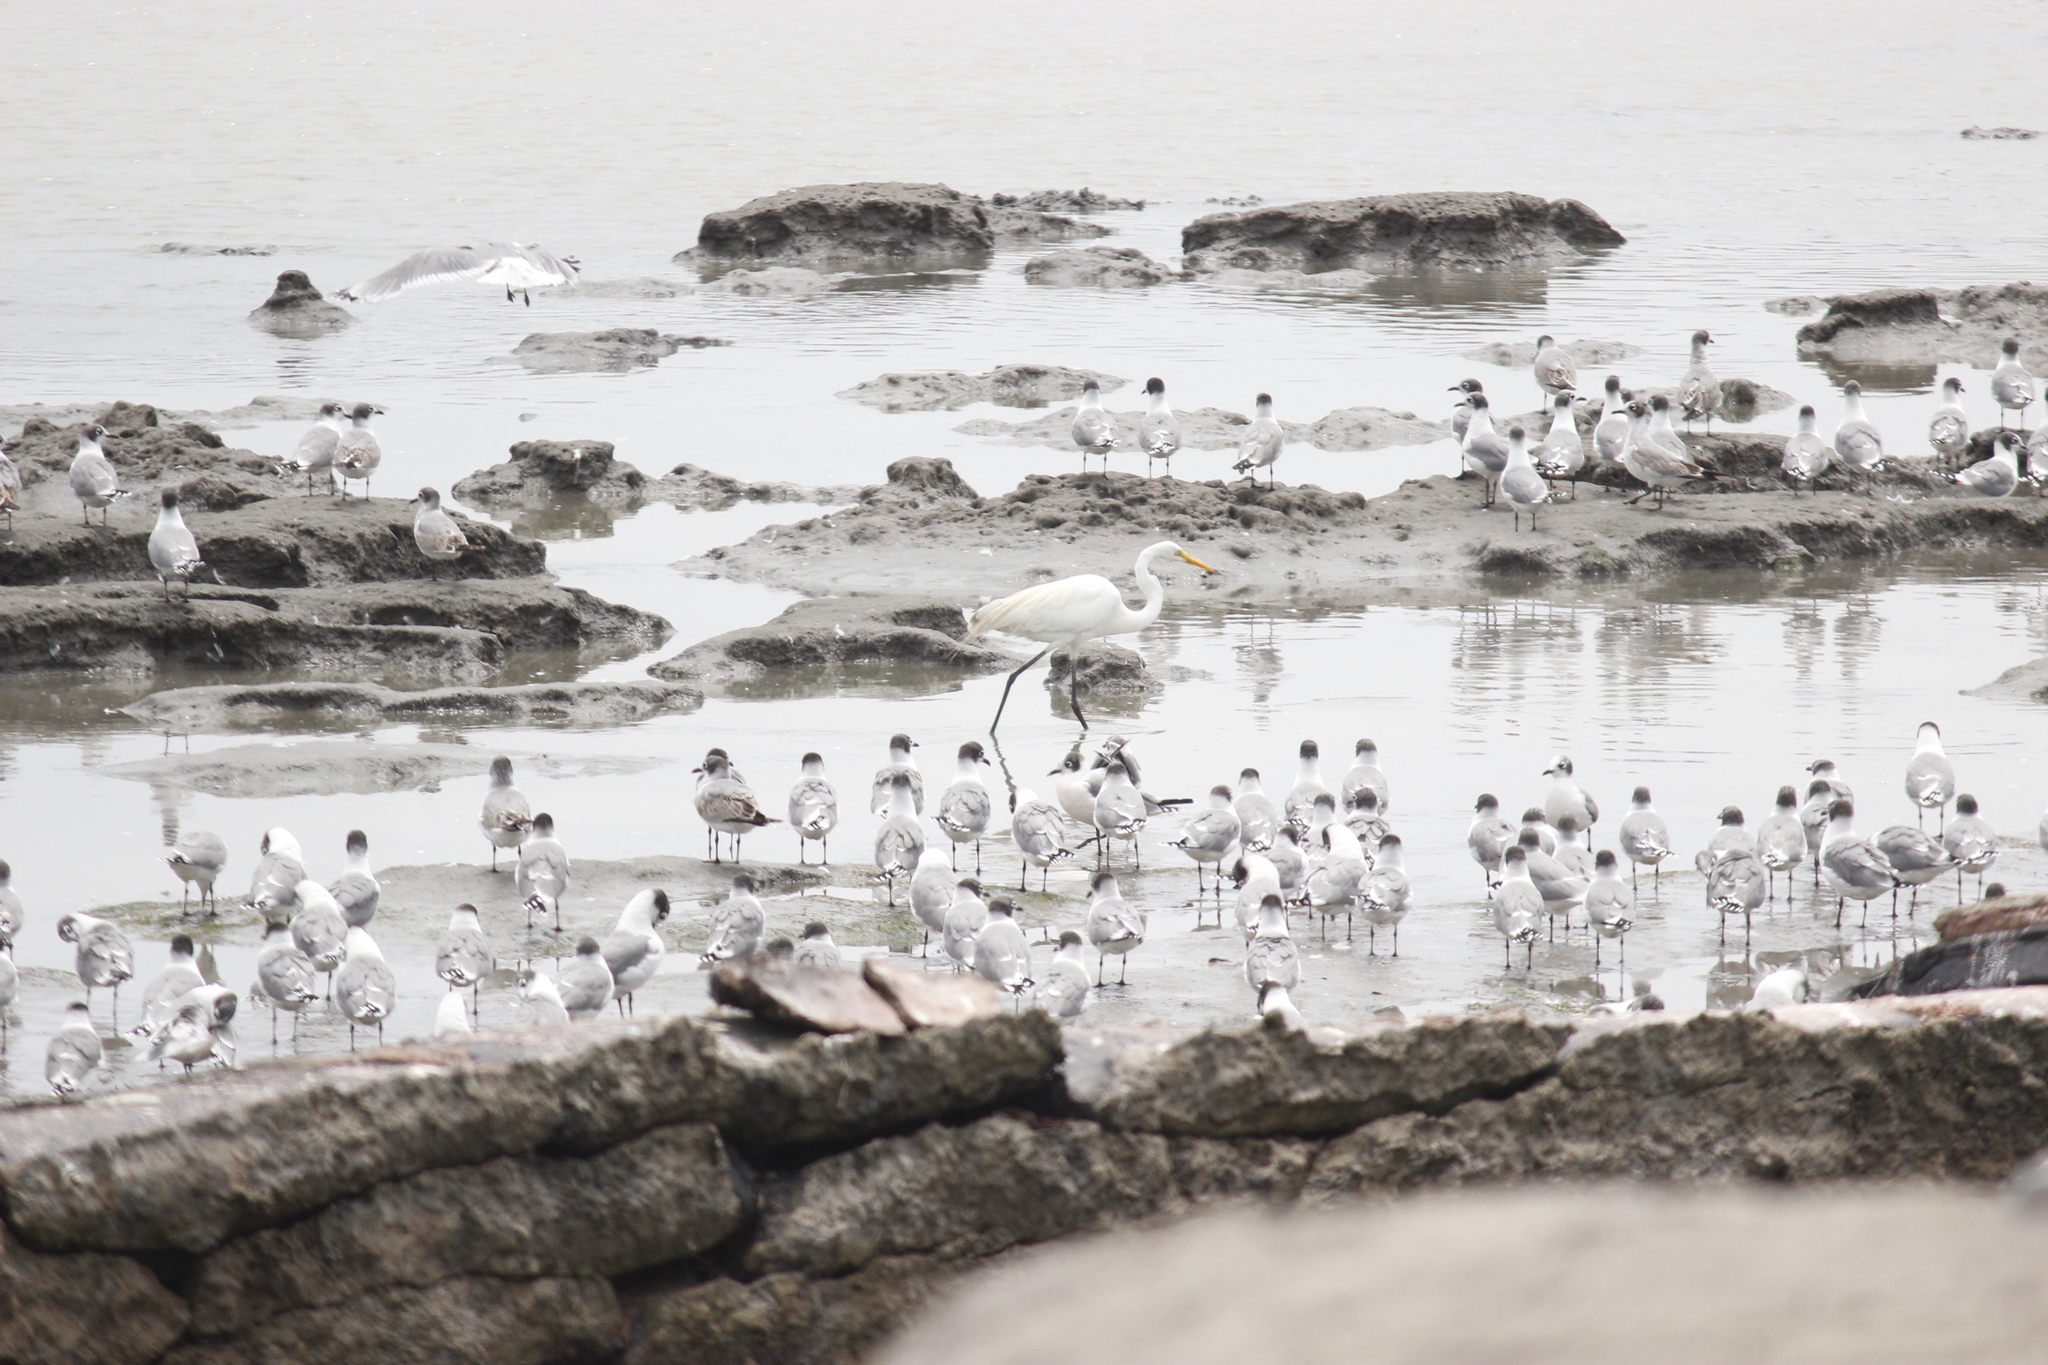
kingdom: Animalia
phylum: Chordata
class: Aves
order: Pelecaniformes
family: Ardeidae
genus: Ardea
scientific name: Ardea alba
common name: Great egret
